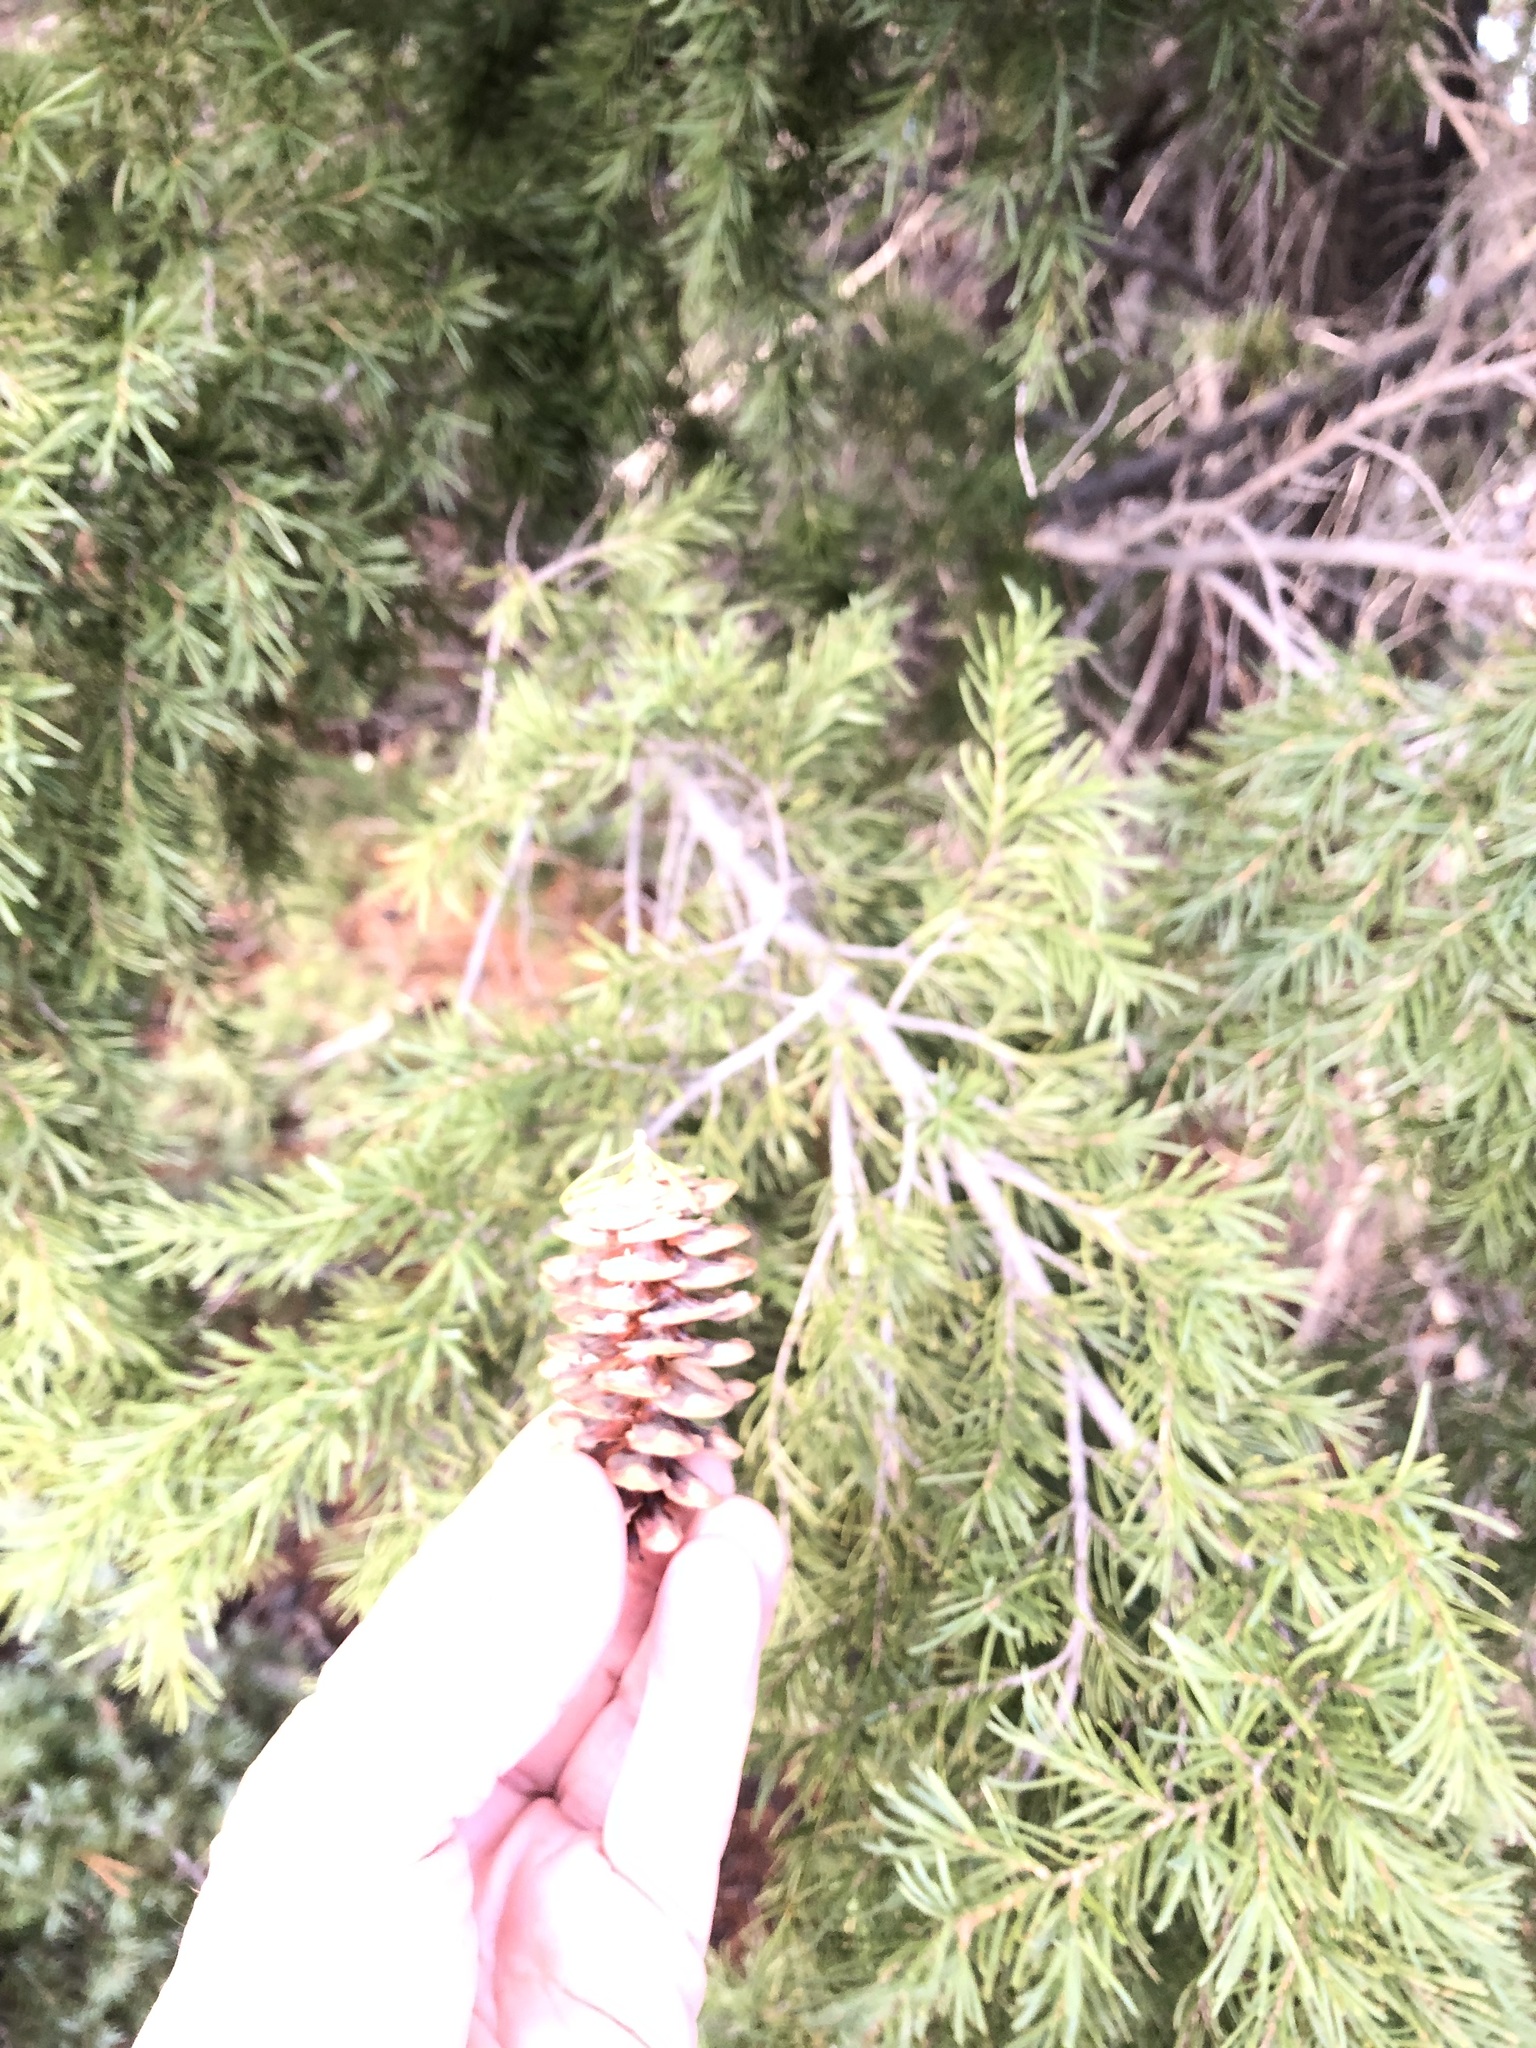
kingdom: Plantae
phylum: Tracheophyta
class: Pinopsida
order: Pinales
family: Pinaceae
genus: Tsuga
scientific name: Tsuga mertensiana
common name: Mountain hemlock
